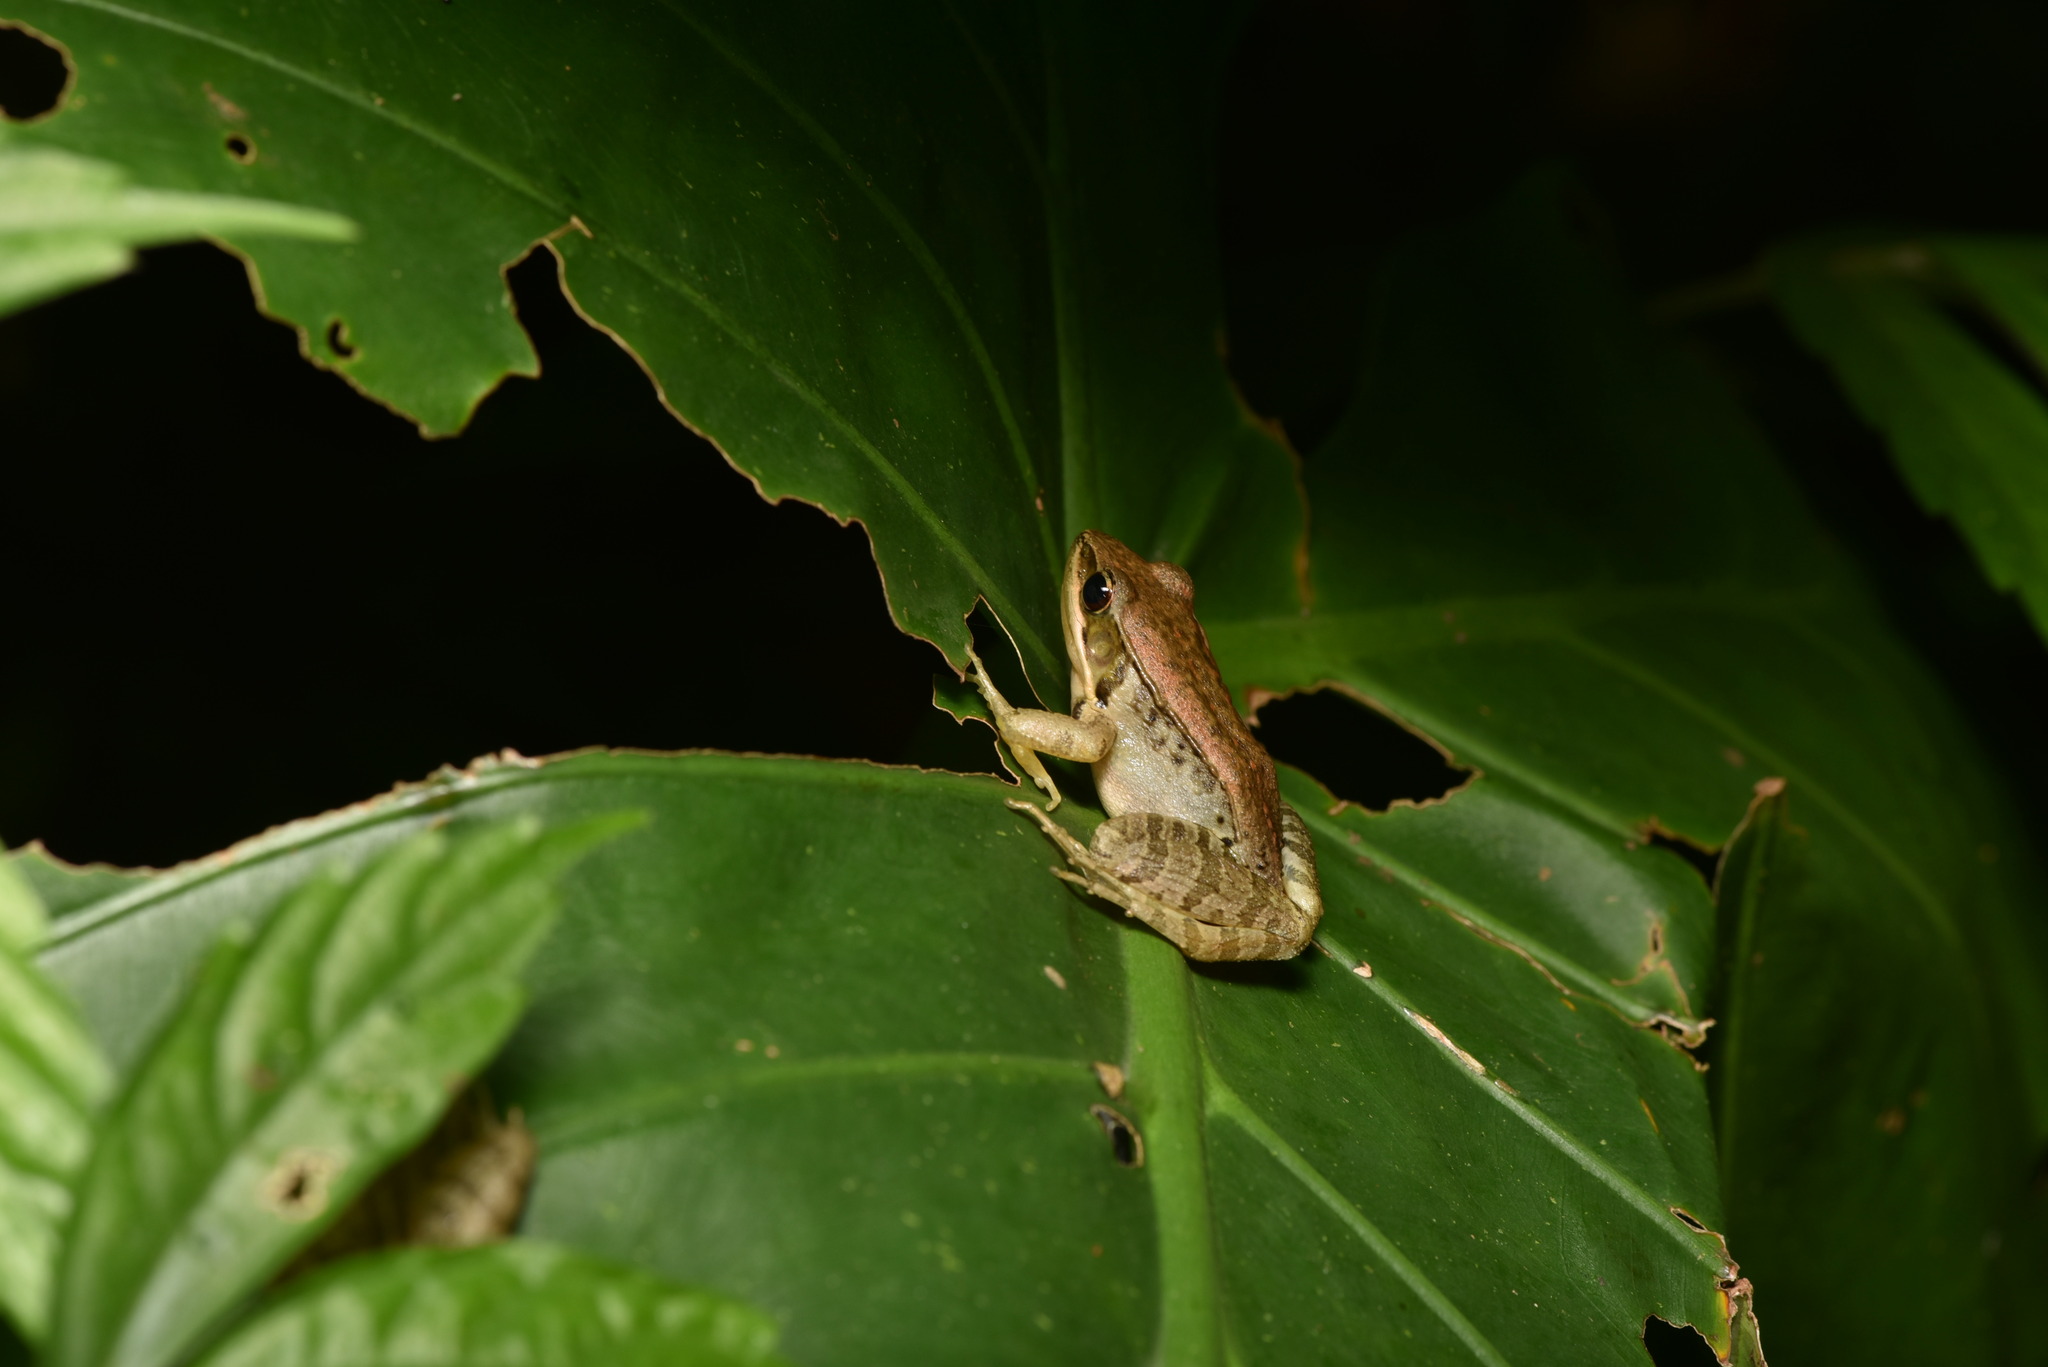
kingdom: Animalia
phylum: Chordata
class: Amphibia
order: Anura
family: Ranidae
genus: Nidirana
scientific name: Nidirana adenopleura
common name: Olive frog
